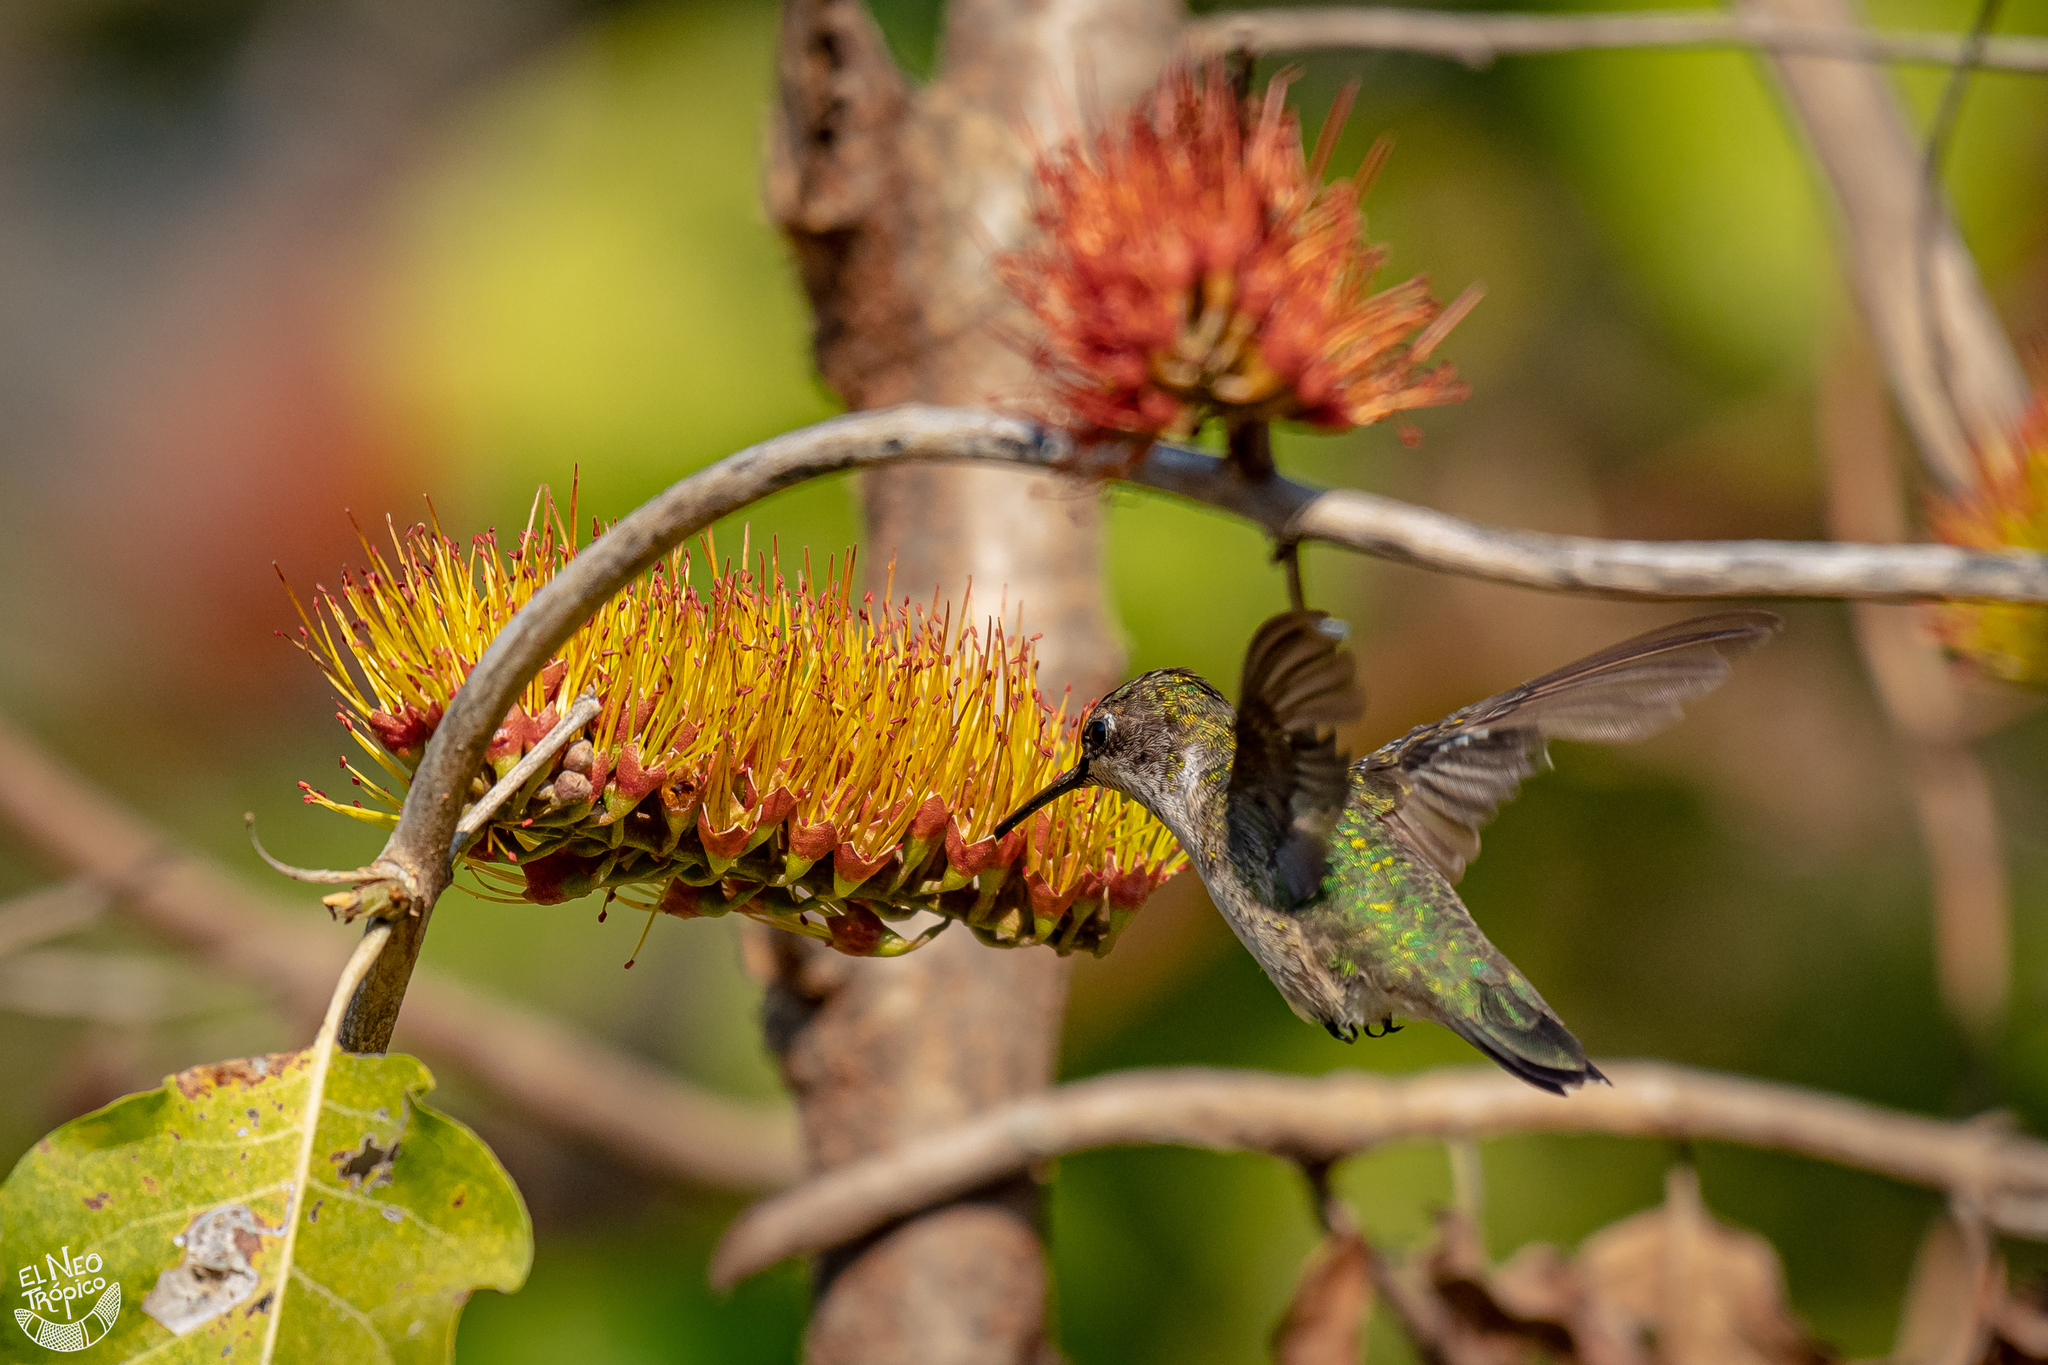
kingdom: Animalia
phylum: Chordata
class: Aves
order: Apodiformes
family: Trochilidae
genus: Archilochus
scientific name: Archilochus colubris
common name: Ruby-throated hummingbird
